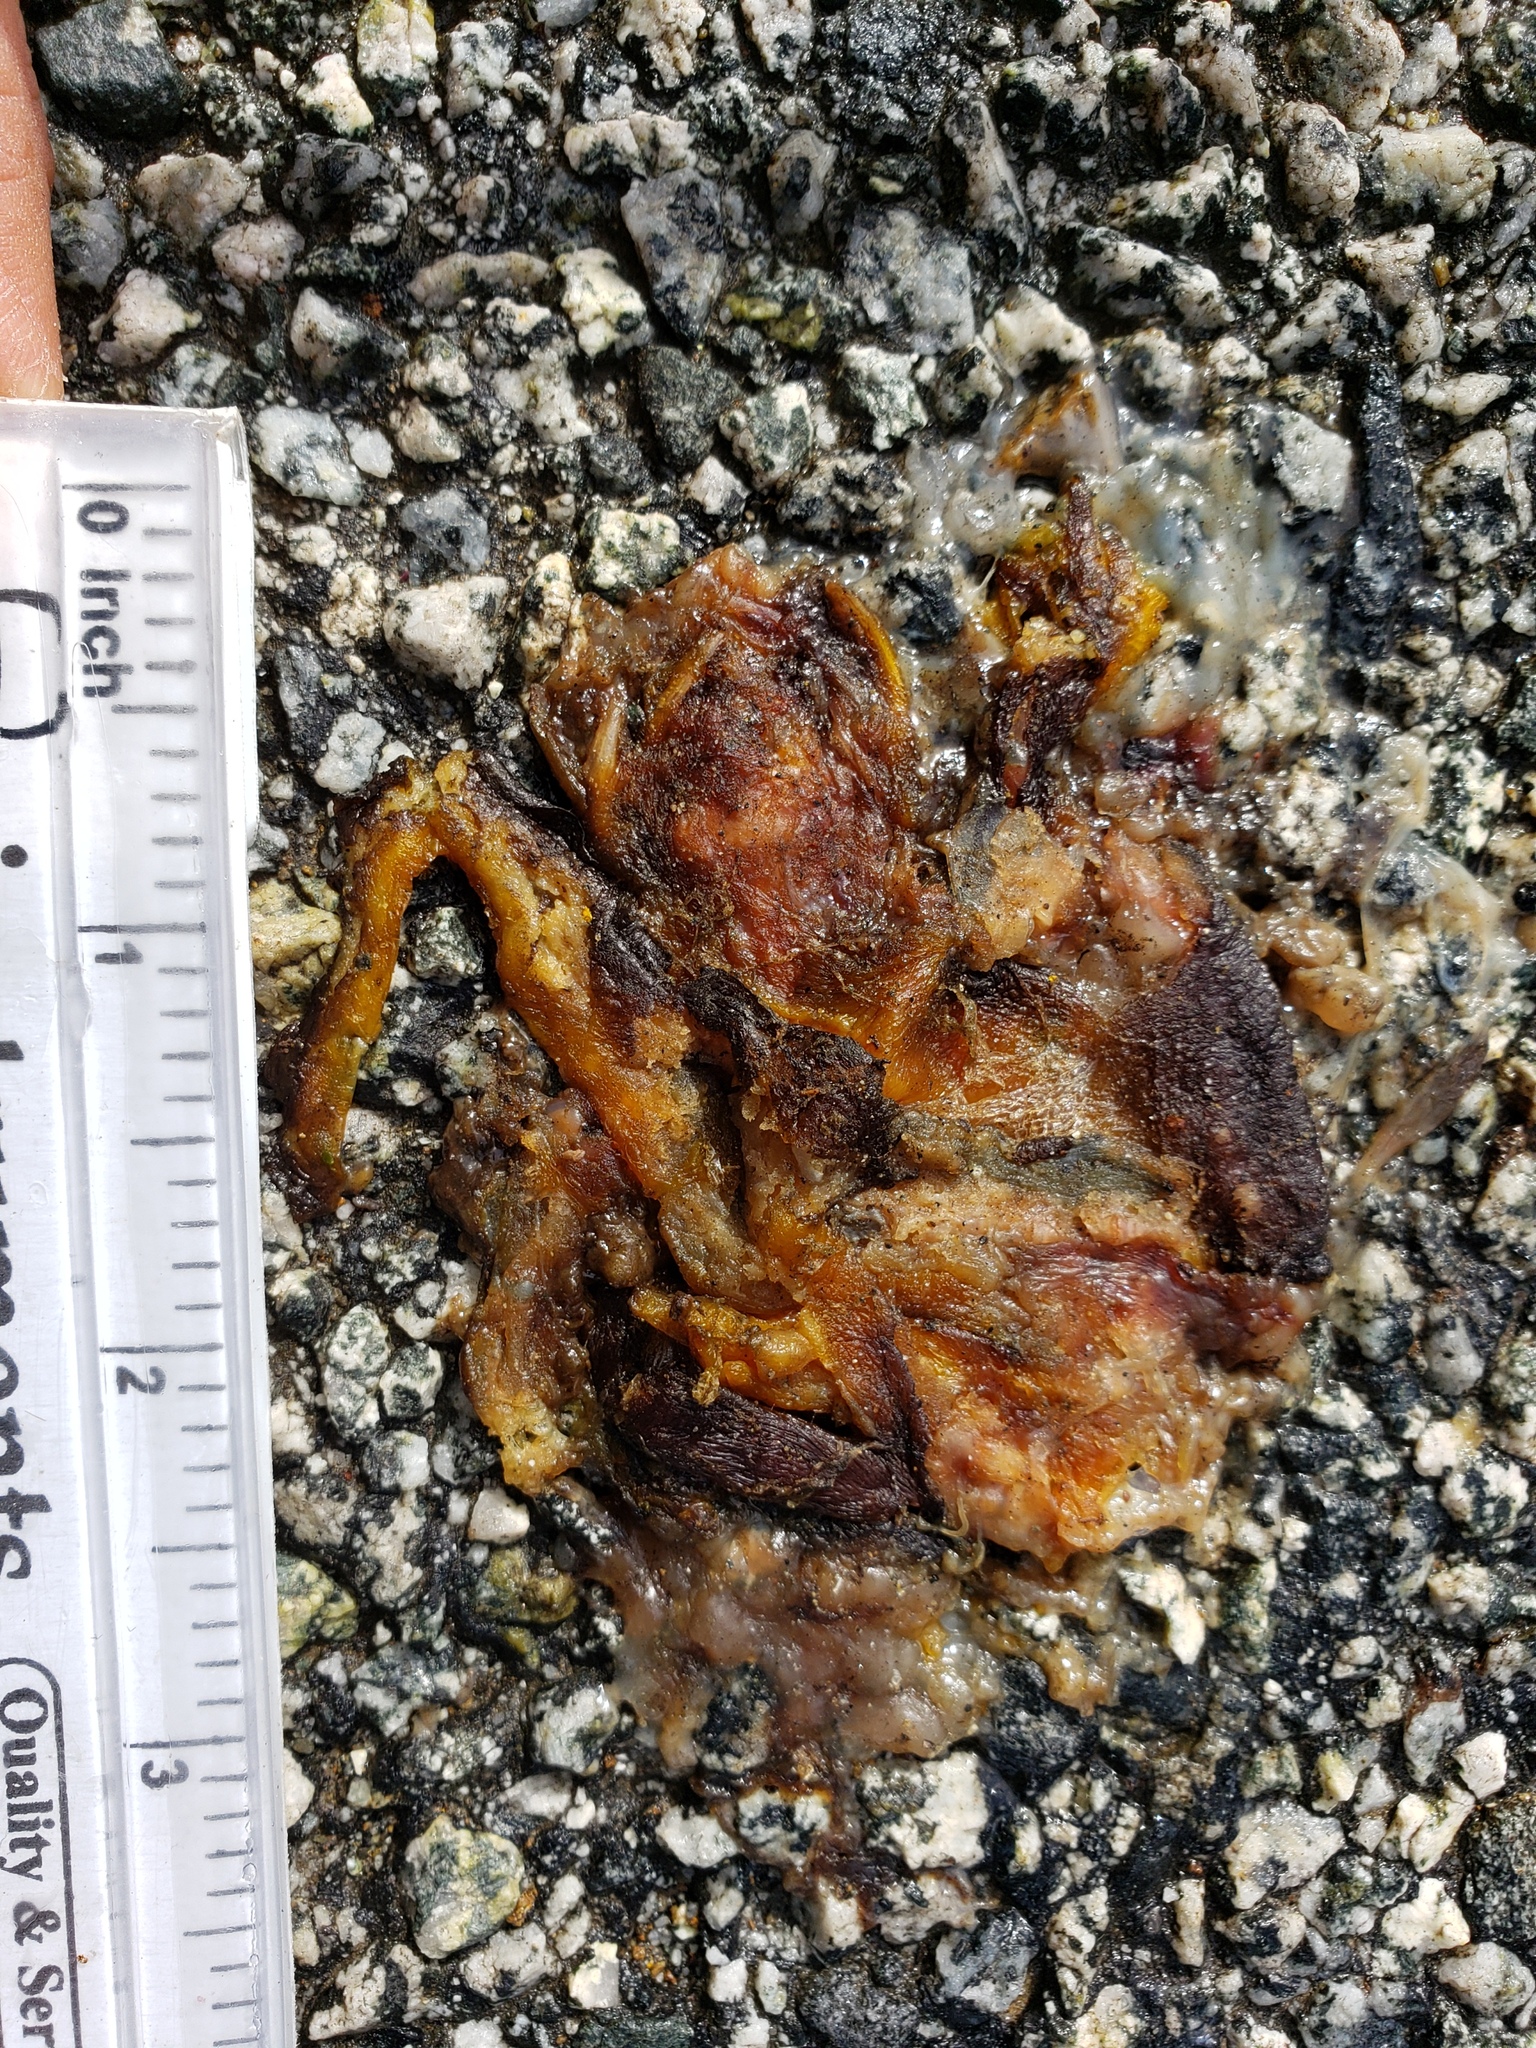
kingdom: Animalia
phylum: Chordata
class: Amphibia
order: Caudata
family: Salamandridae
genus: Taricha
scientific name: Taricha
